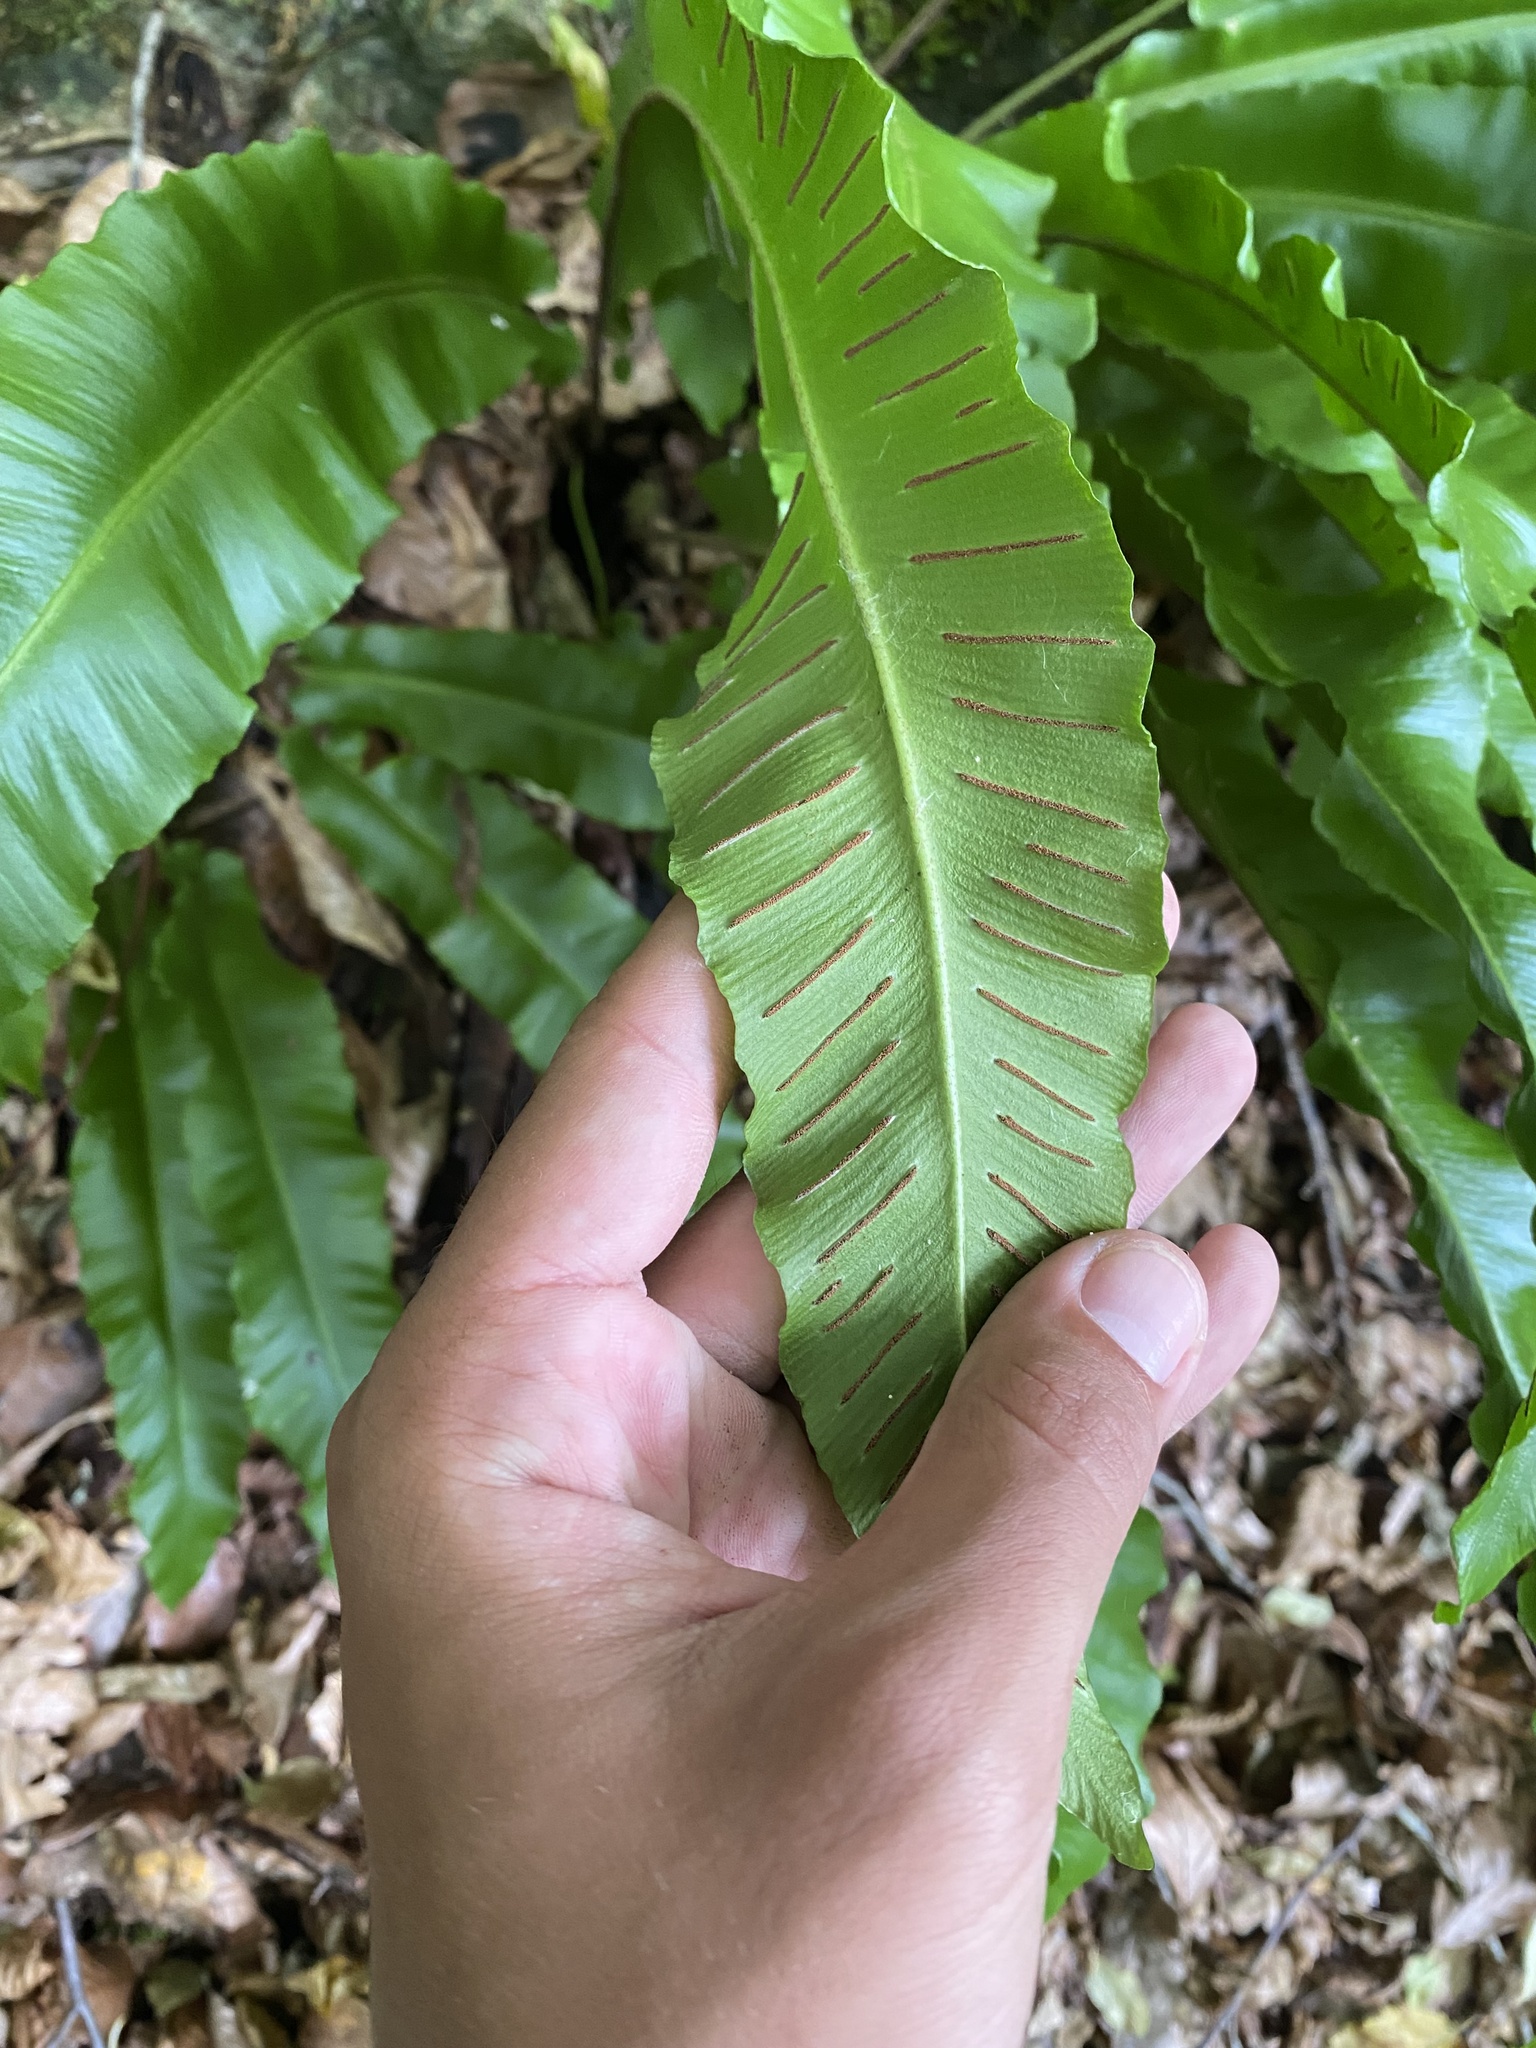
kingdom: Plantae
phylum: Tracheophyta
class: Polypodiopsida
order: Polypodiales
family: Aspleniaceae
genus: Asplenium
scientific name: Asplenium scolopendrium
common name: Hart's-tongue fern
